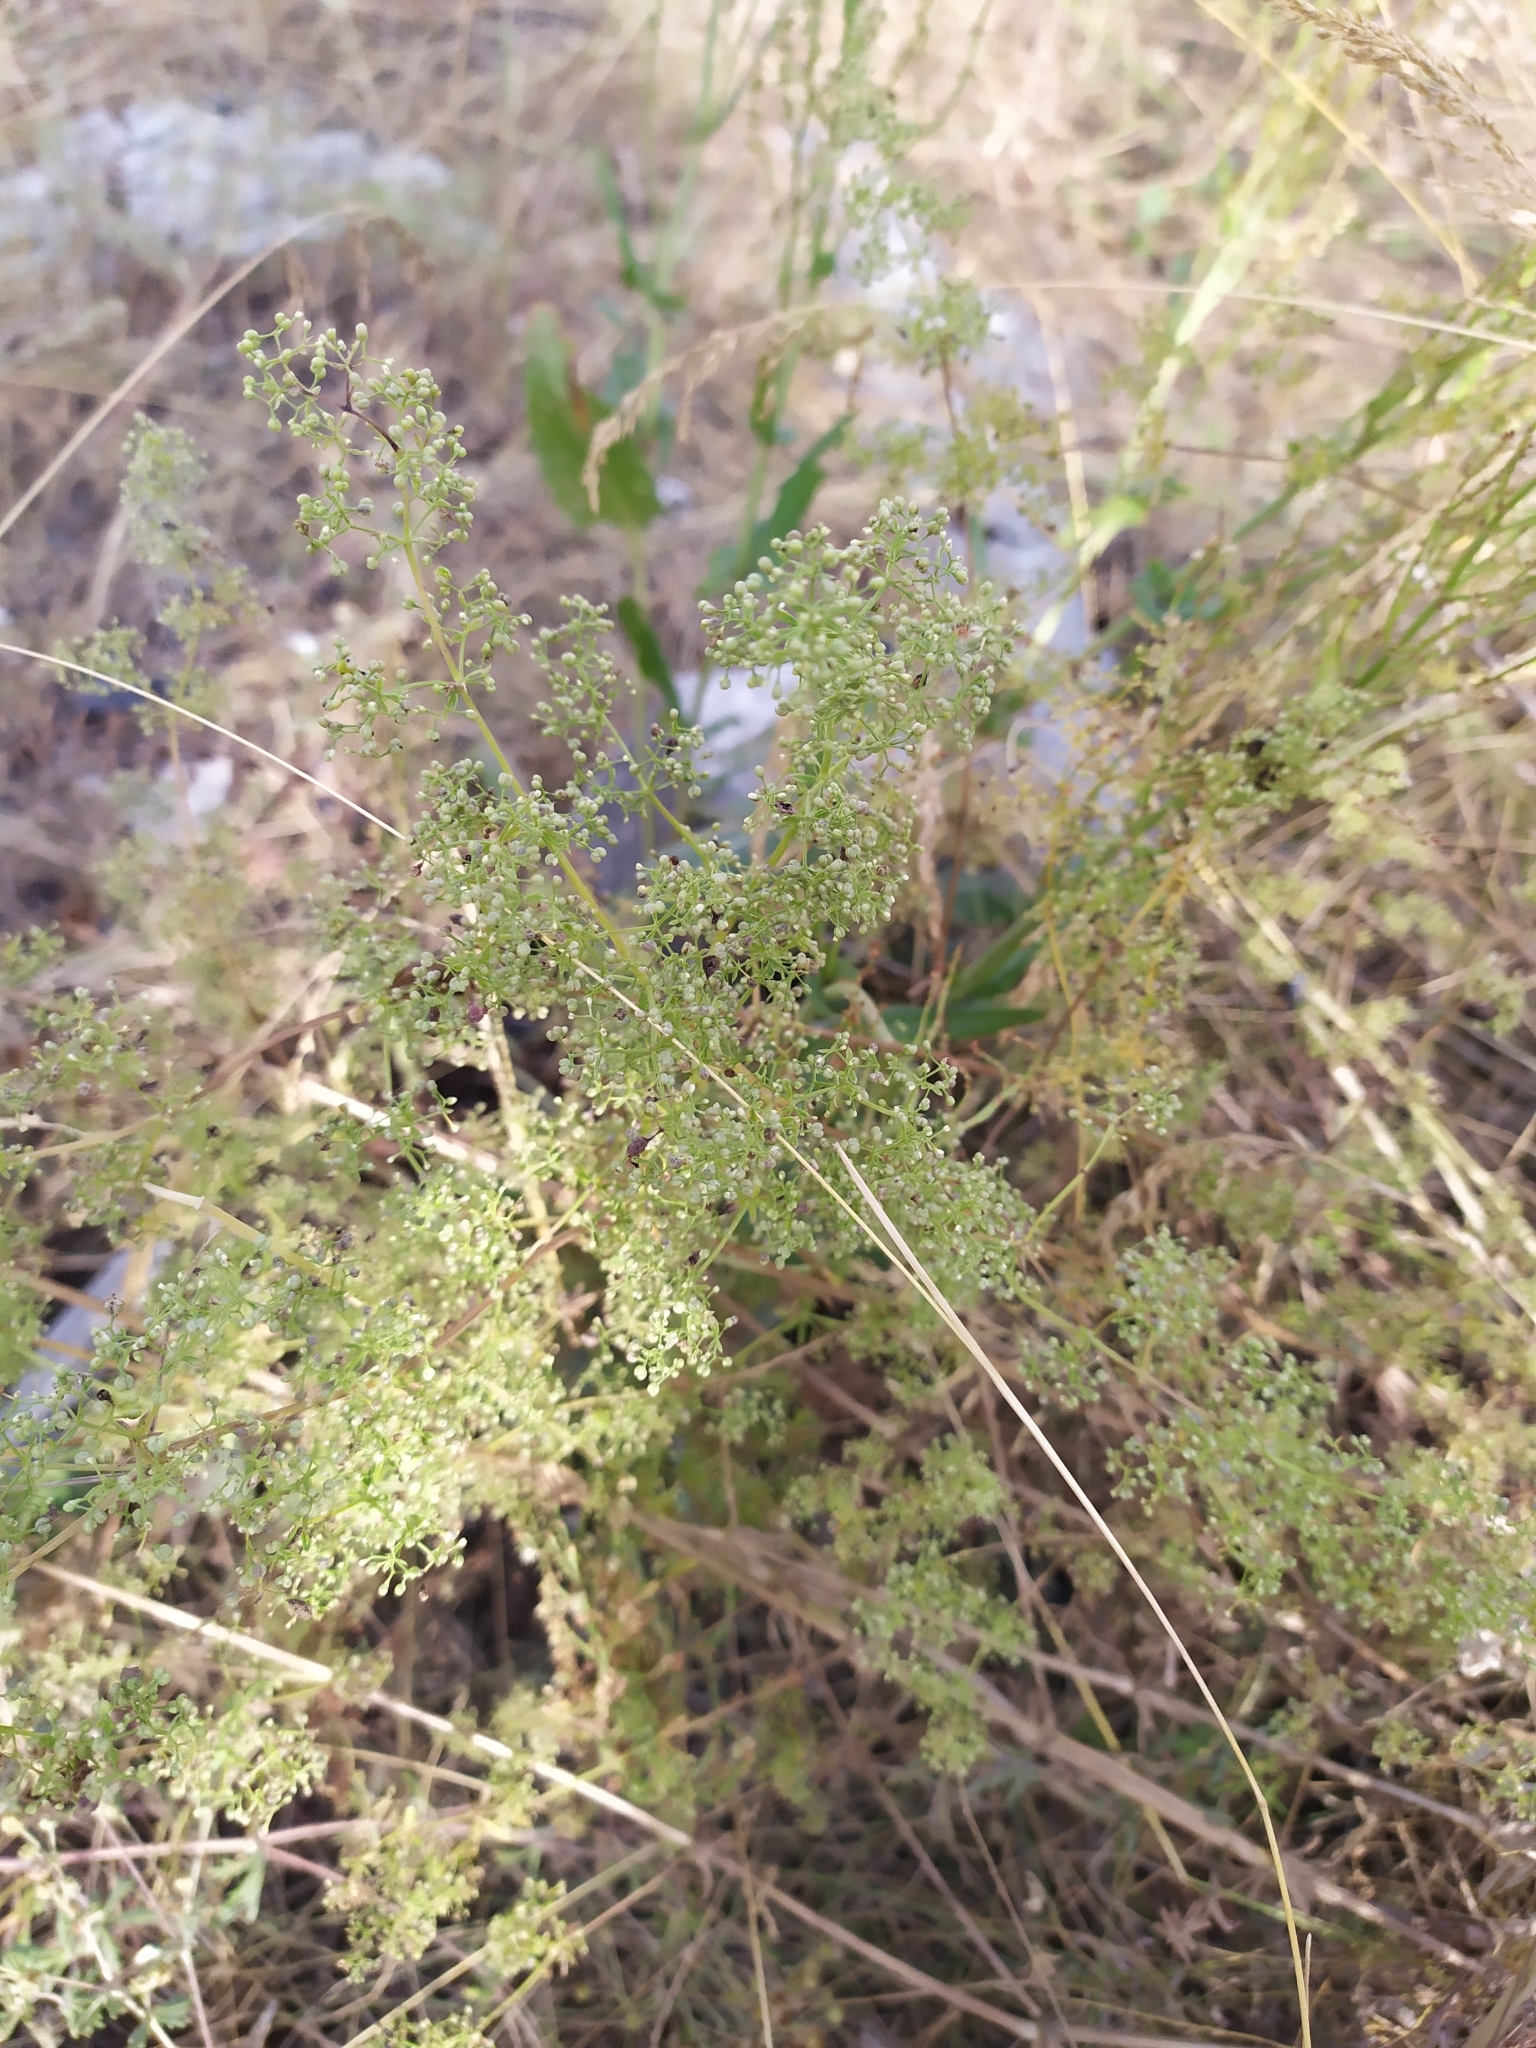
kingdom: Plantae
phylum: Tracheophyta
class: Magnoliopsida
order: Gentianales
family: Rubiaceae
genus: Galium
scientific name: Galium verum
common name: Lady's bedstraw
